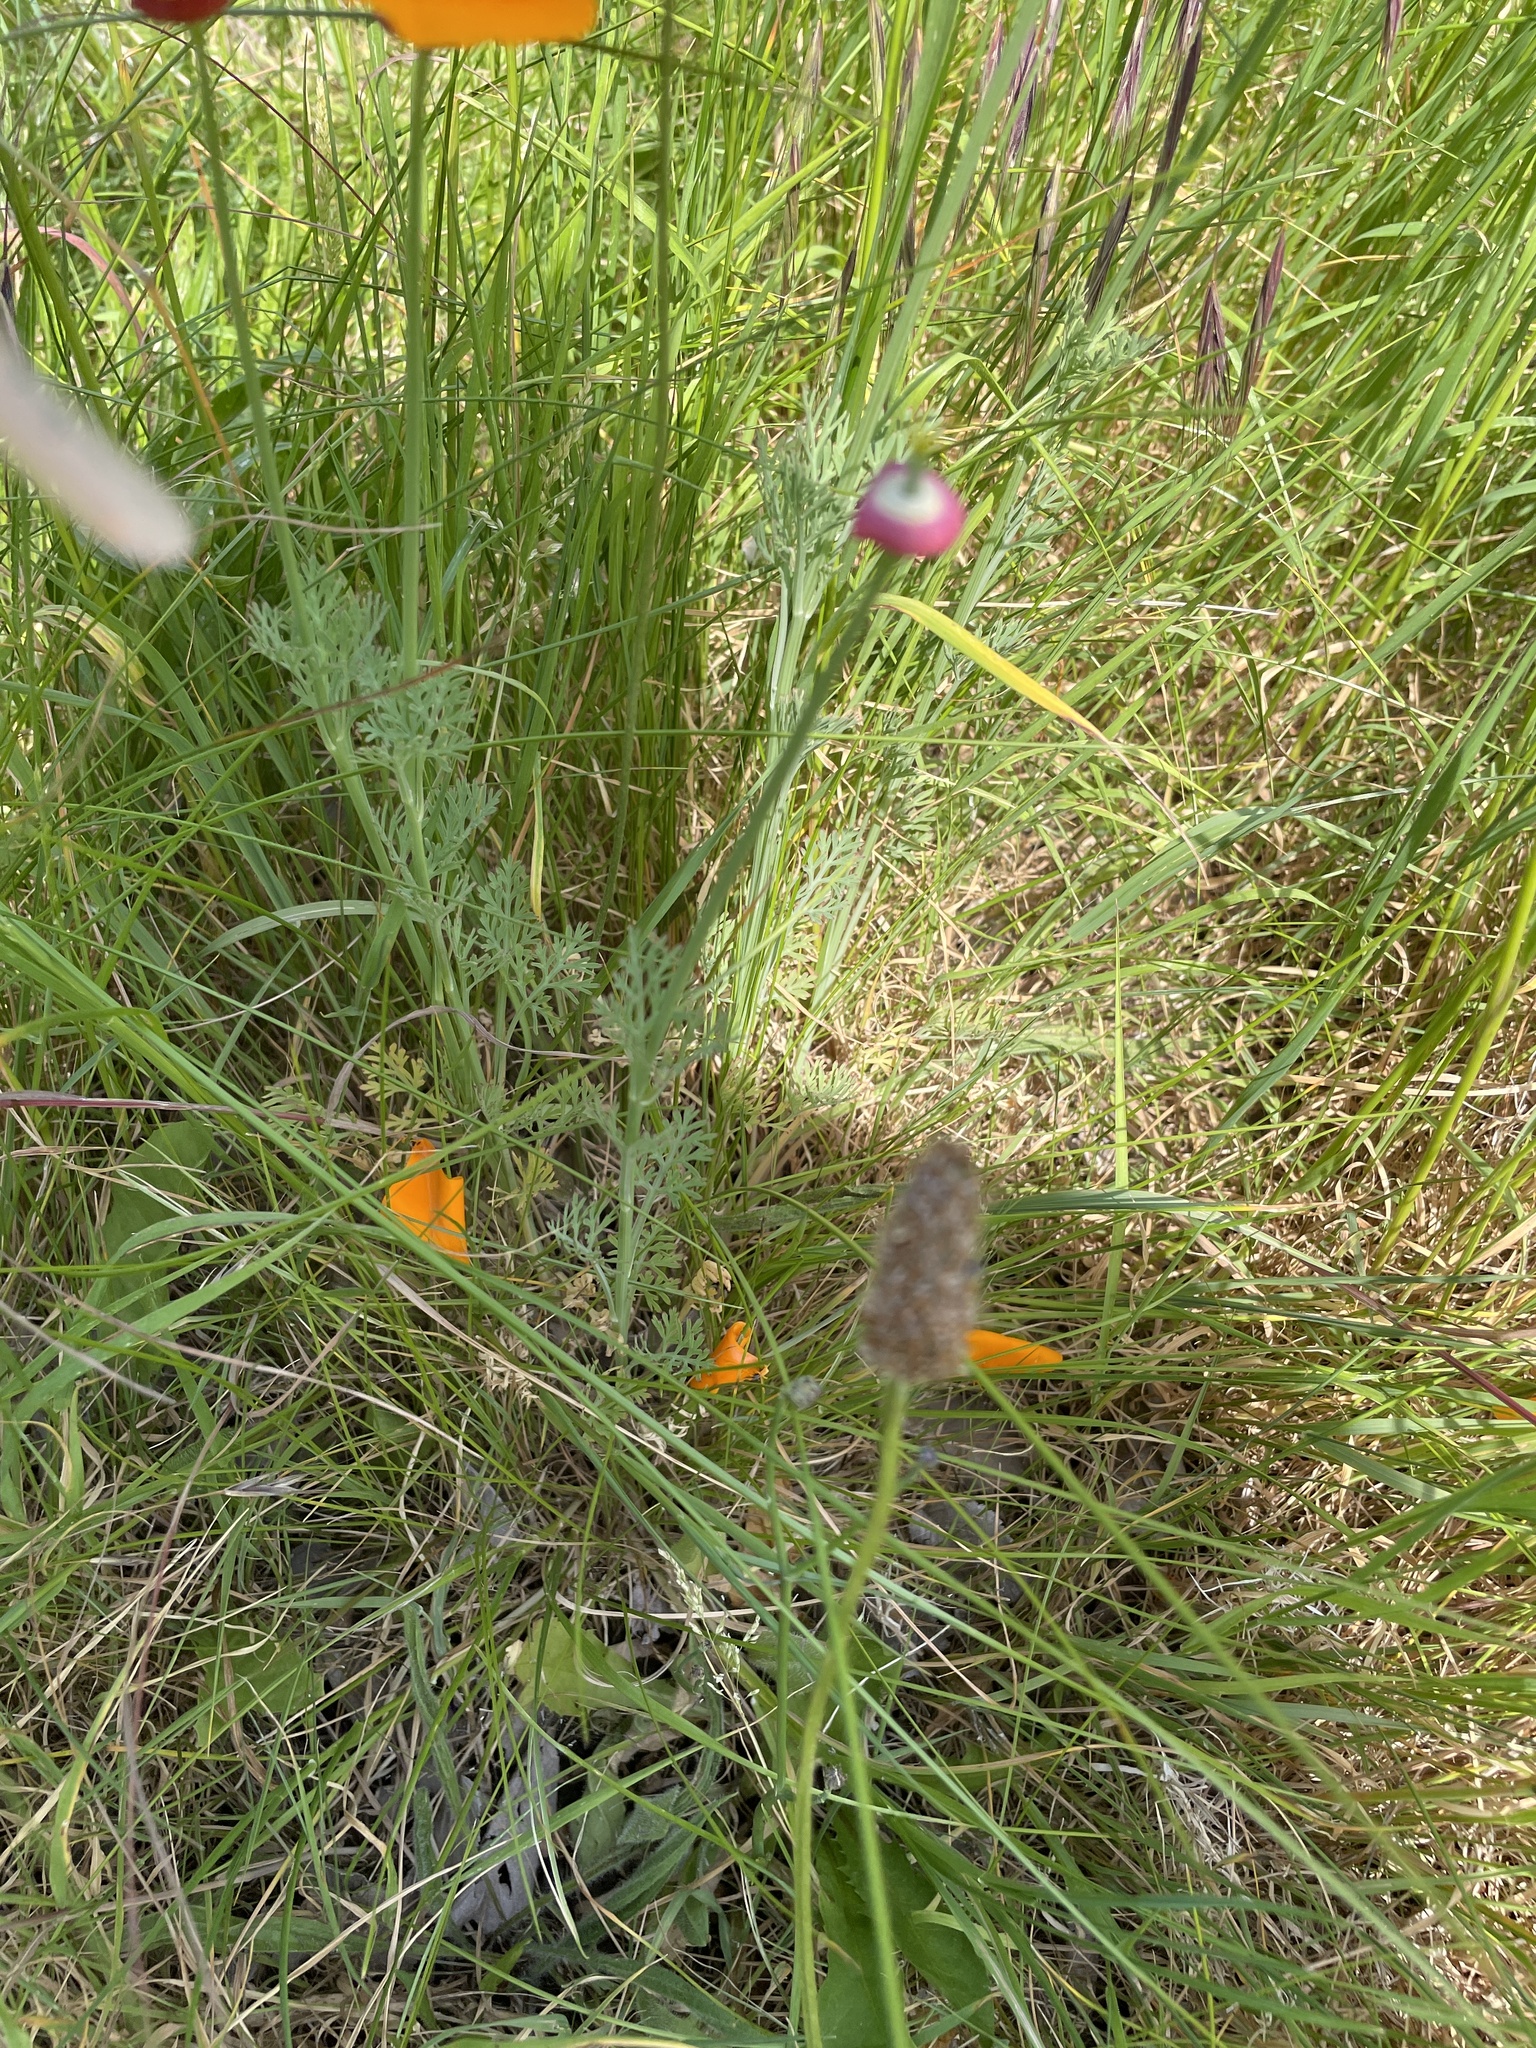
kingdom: Plantae
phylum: Tracheophyta
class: Magnoliopsida
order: Ranunculales
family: Papaveraceae
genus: Eschscholzia
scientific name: Eschscholzia californica
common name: California poppy
